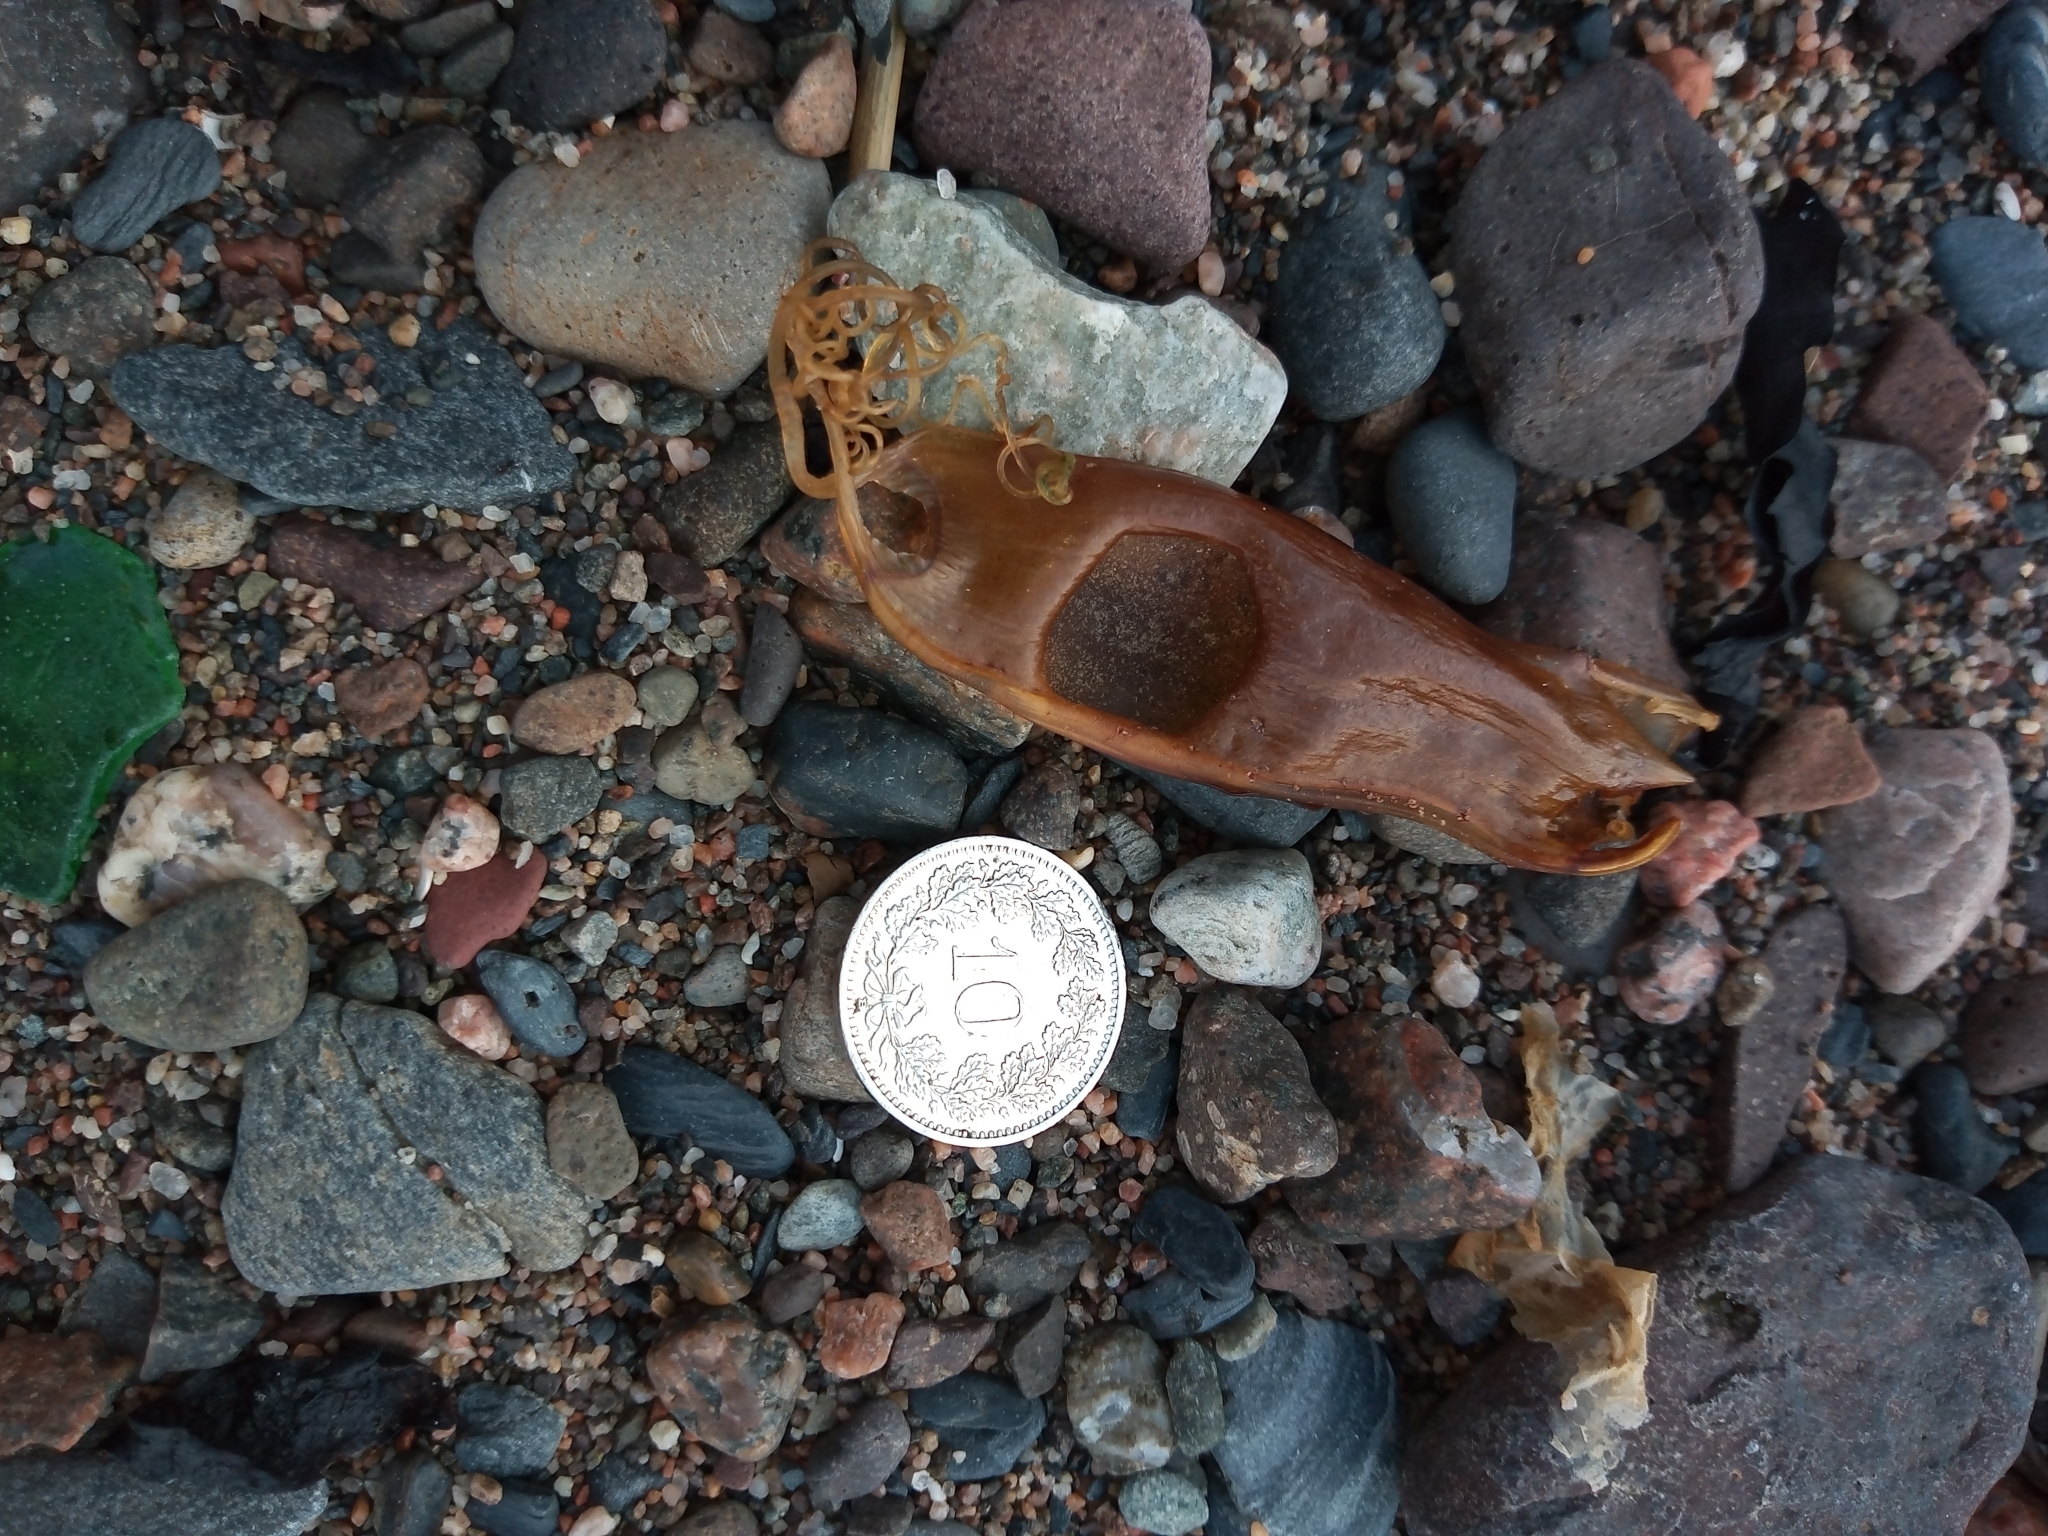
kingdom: Animalia
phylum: Chordata
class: Elasmobranchii
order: Carcharhiniformes
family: Scyliorhinidae
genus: Scyliorhinus
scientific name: Scyliorhinus canicula
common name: Lesser spotted dogfish
